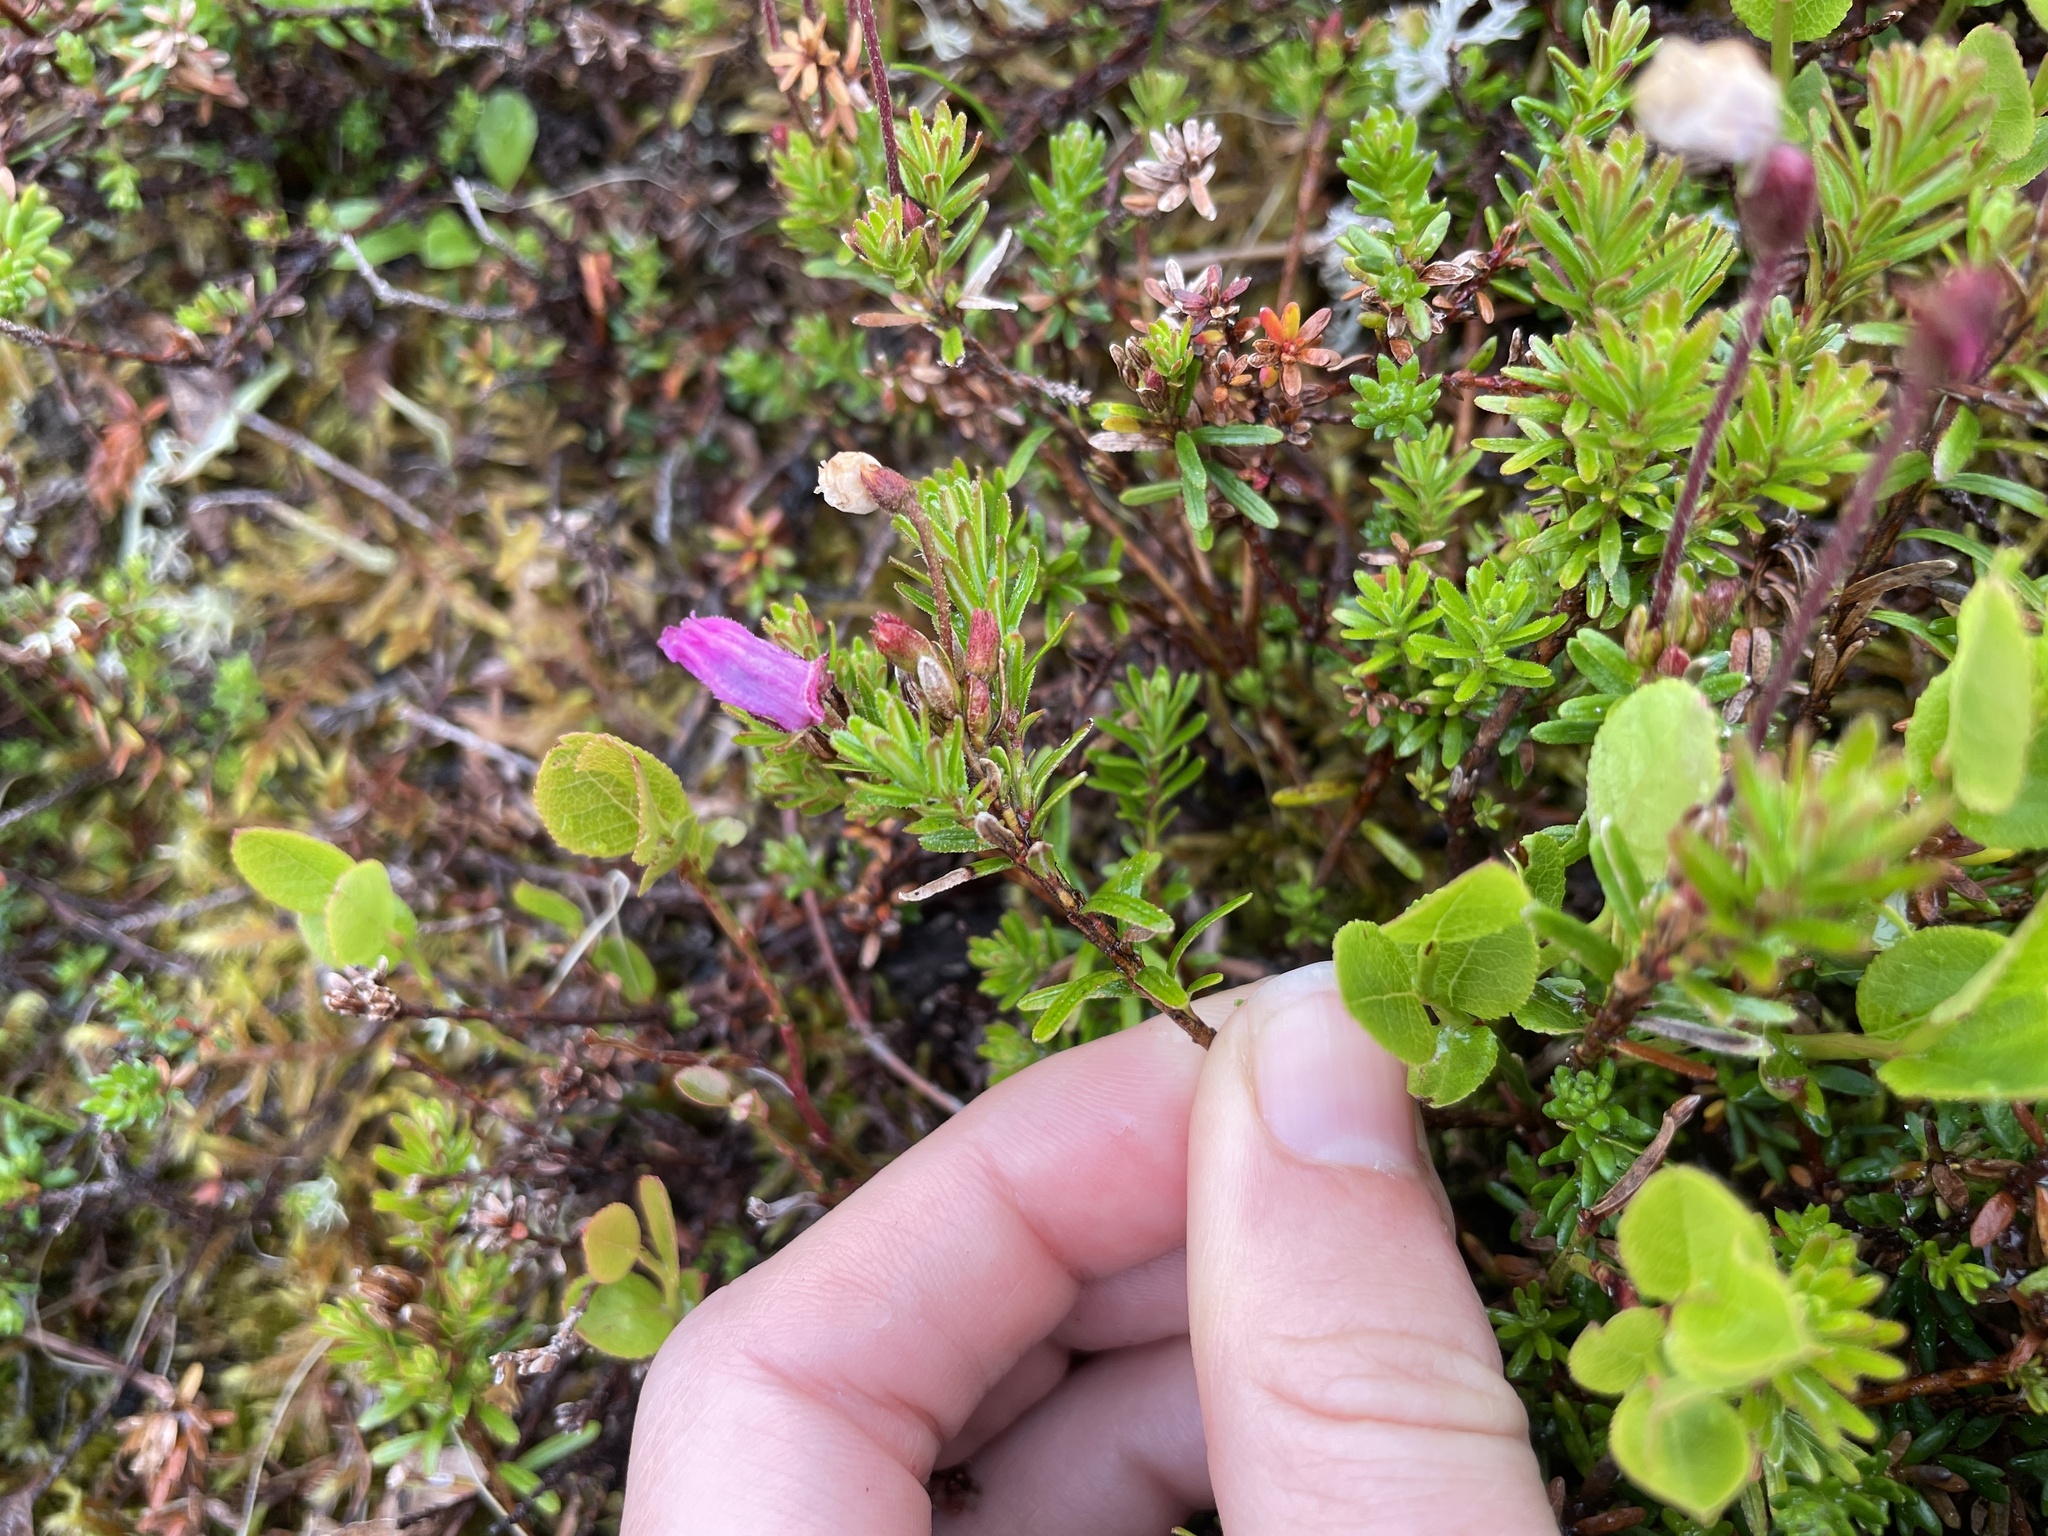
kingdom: Plantae
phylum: Tracheophyta
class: Magnoliopsida
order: Ericales
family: Ericaceae
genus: Phyllodoce
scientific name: Phyllodoce caerulea
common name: Blue heath
